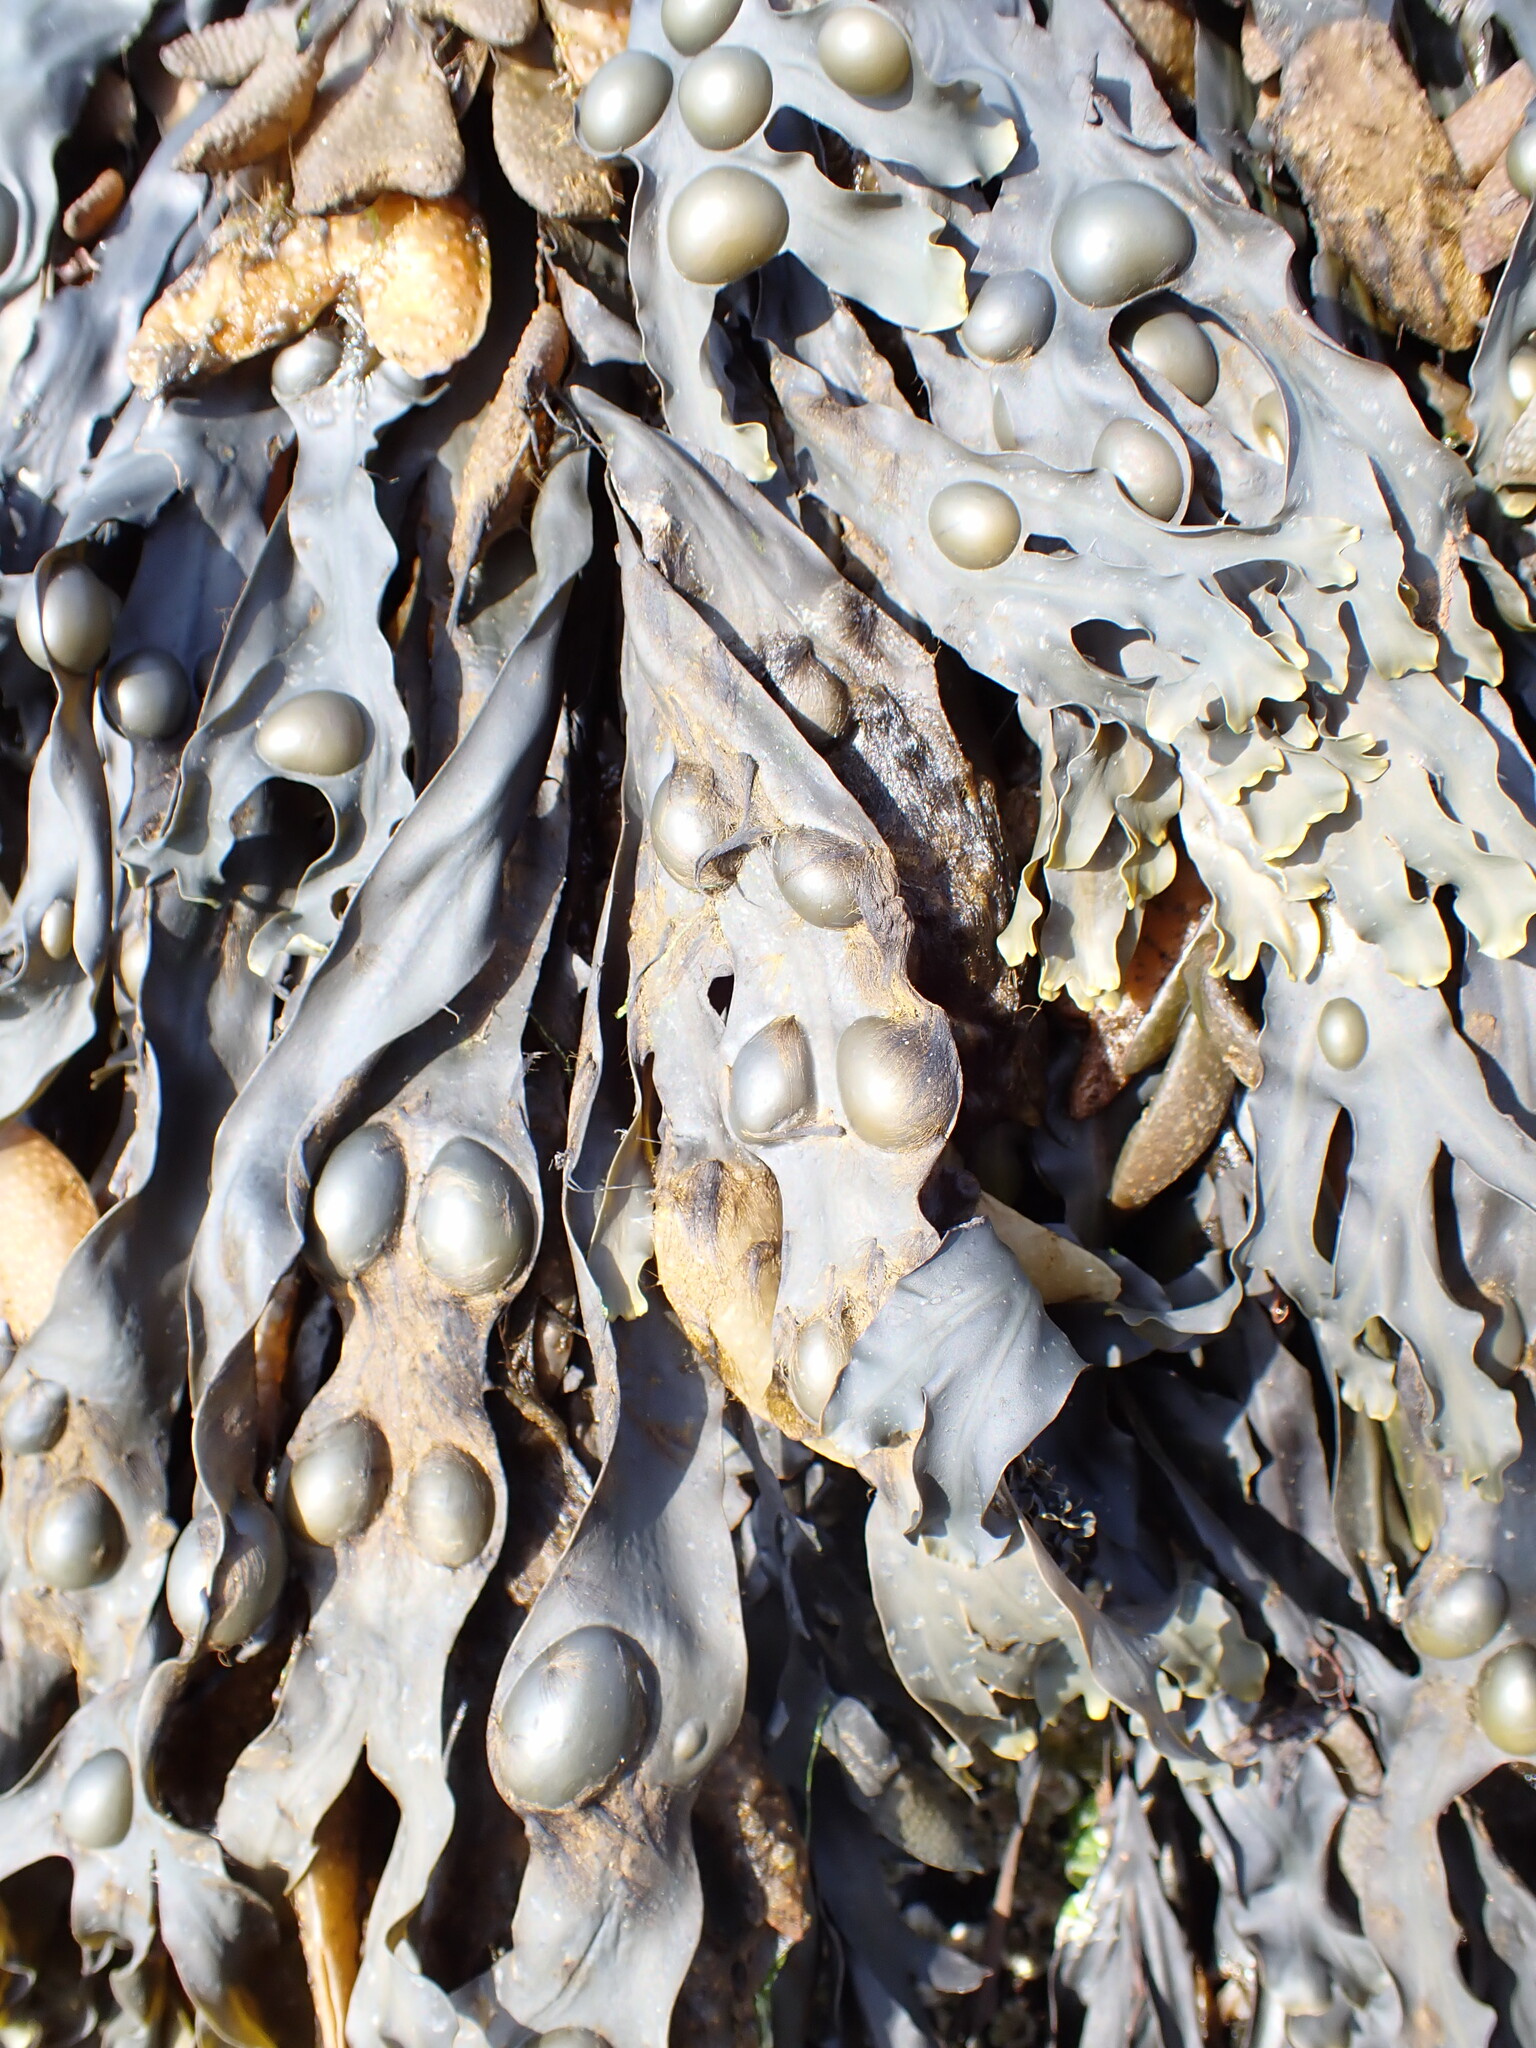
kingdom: Chromista
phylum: Ochrophyta
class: Phaeophyceae
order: Fucales
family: Fucaceae
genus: Fucus
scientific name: Fucus vesiculosus
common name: Bladder wrack
